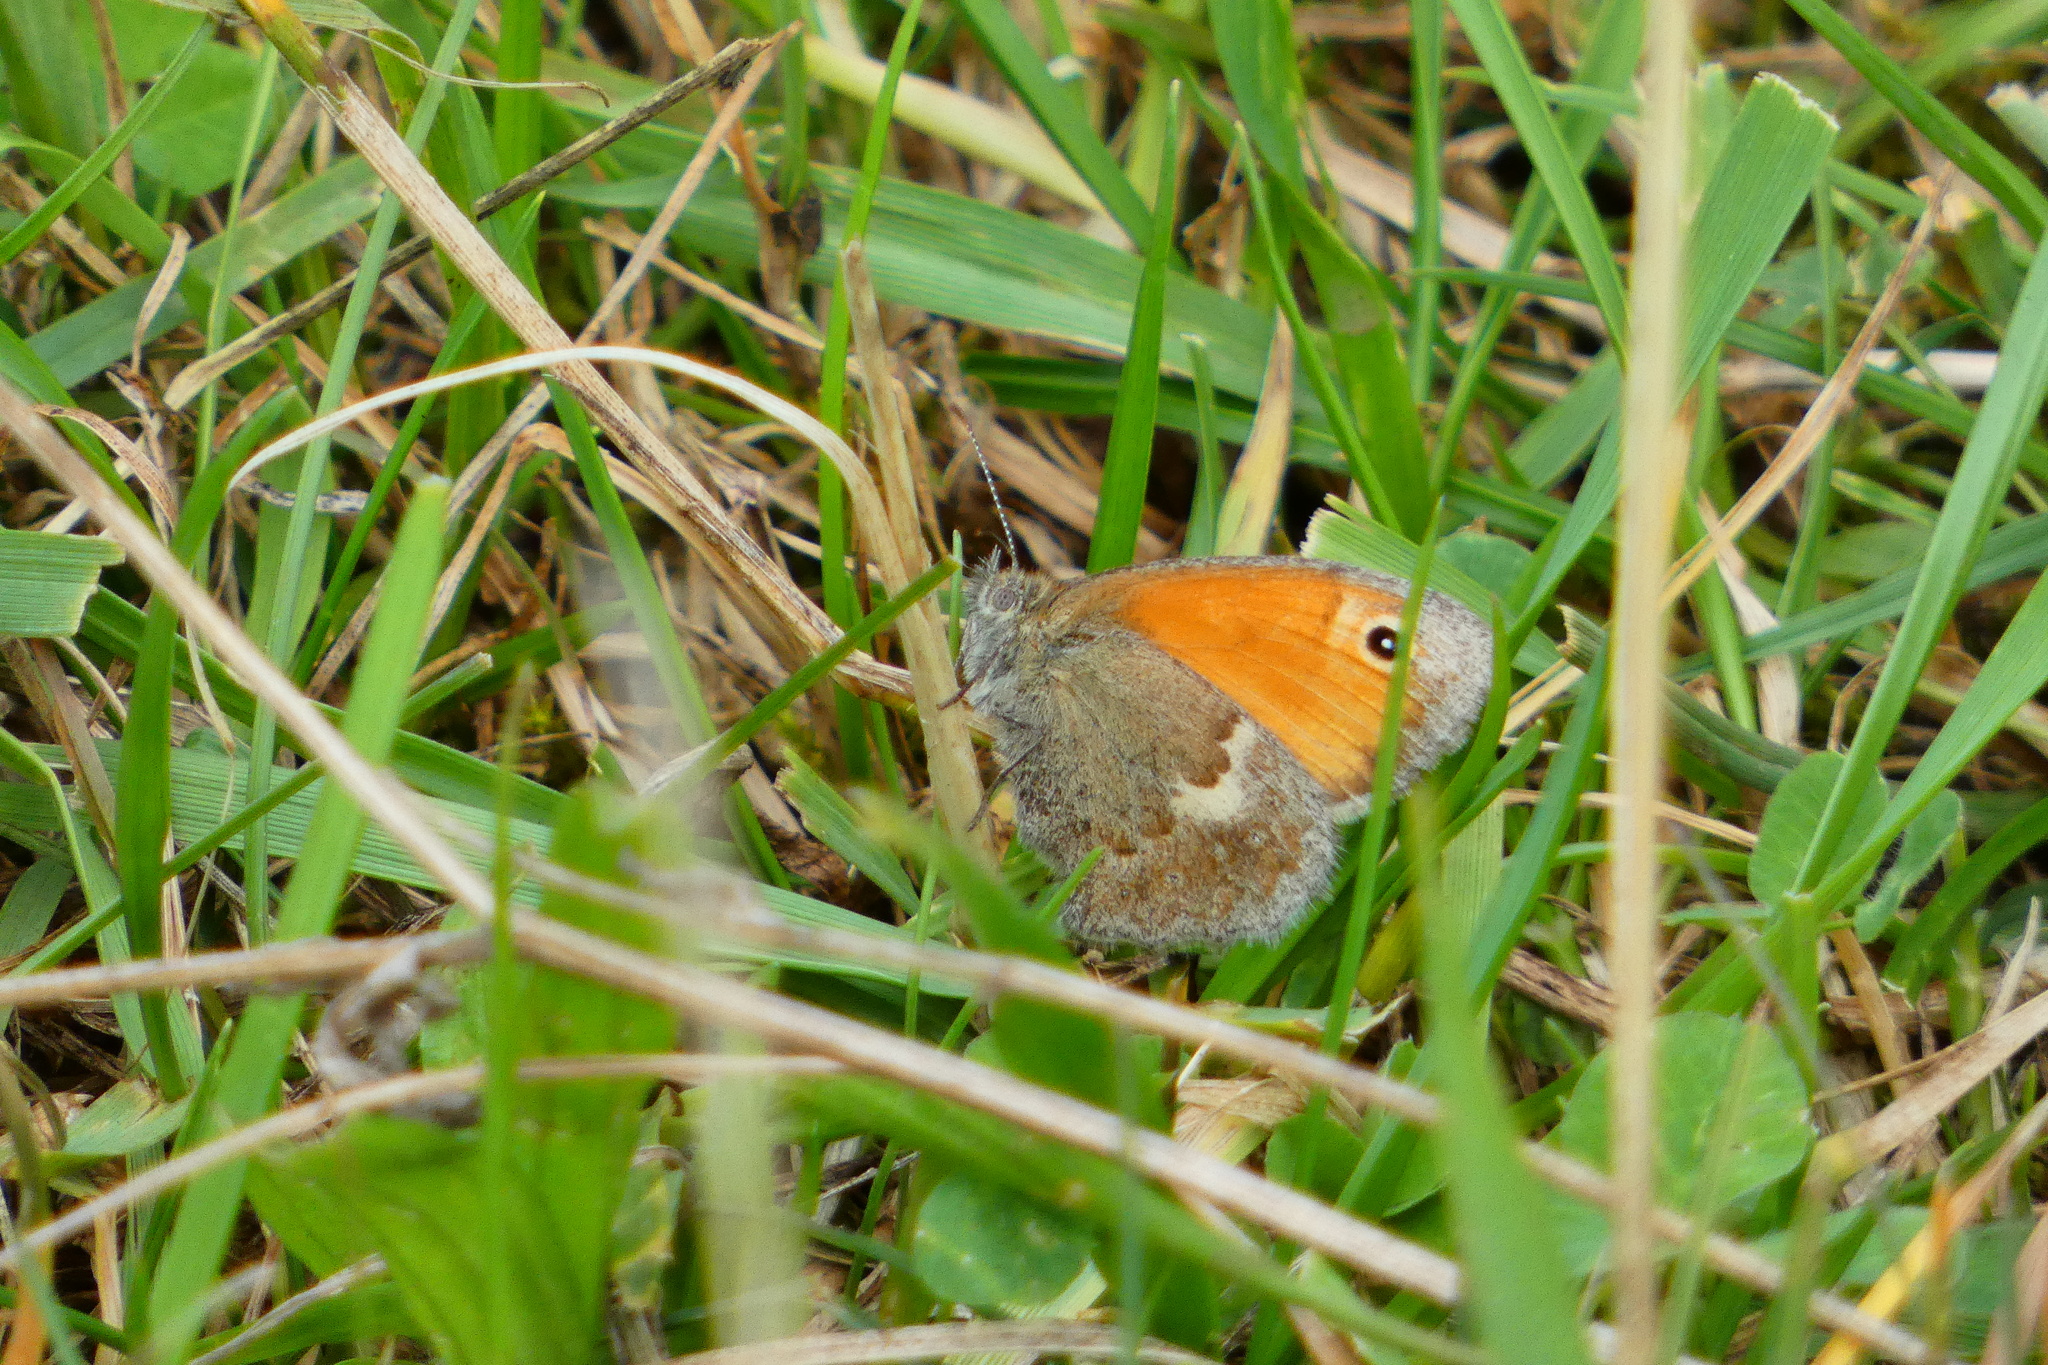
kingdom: Animalia
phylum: Arthropoda
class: Insecta
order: Lepidoptera
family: Nymphalidae
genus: Coenonympha
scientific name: Coenonympha pamphilus
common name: Small heath
